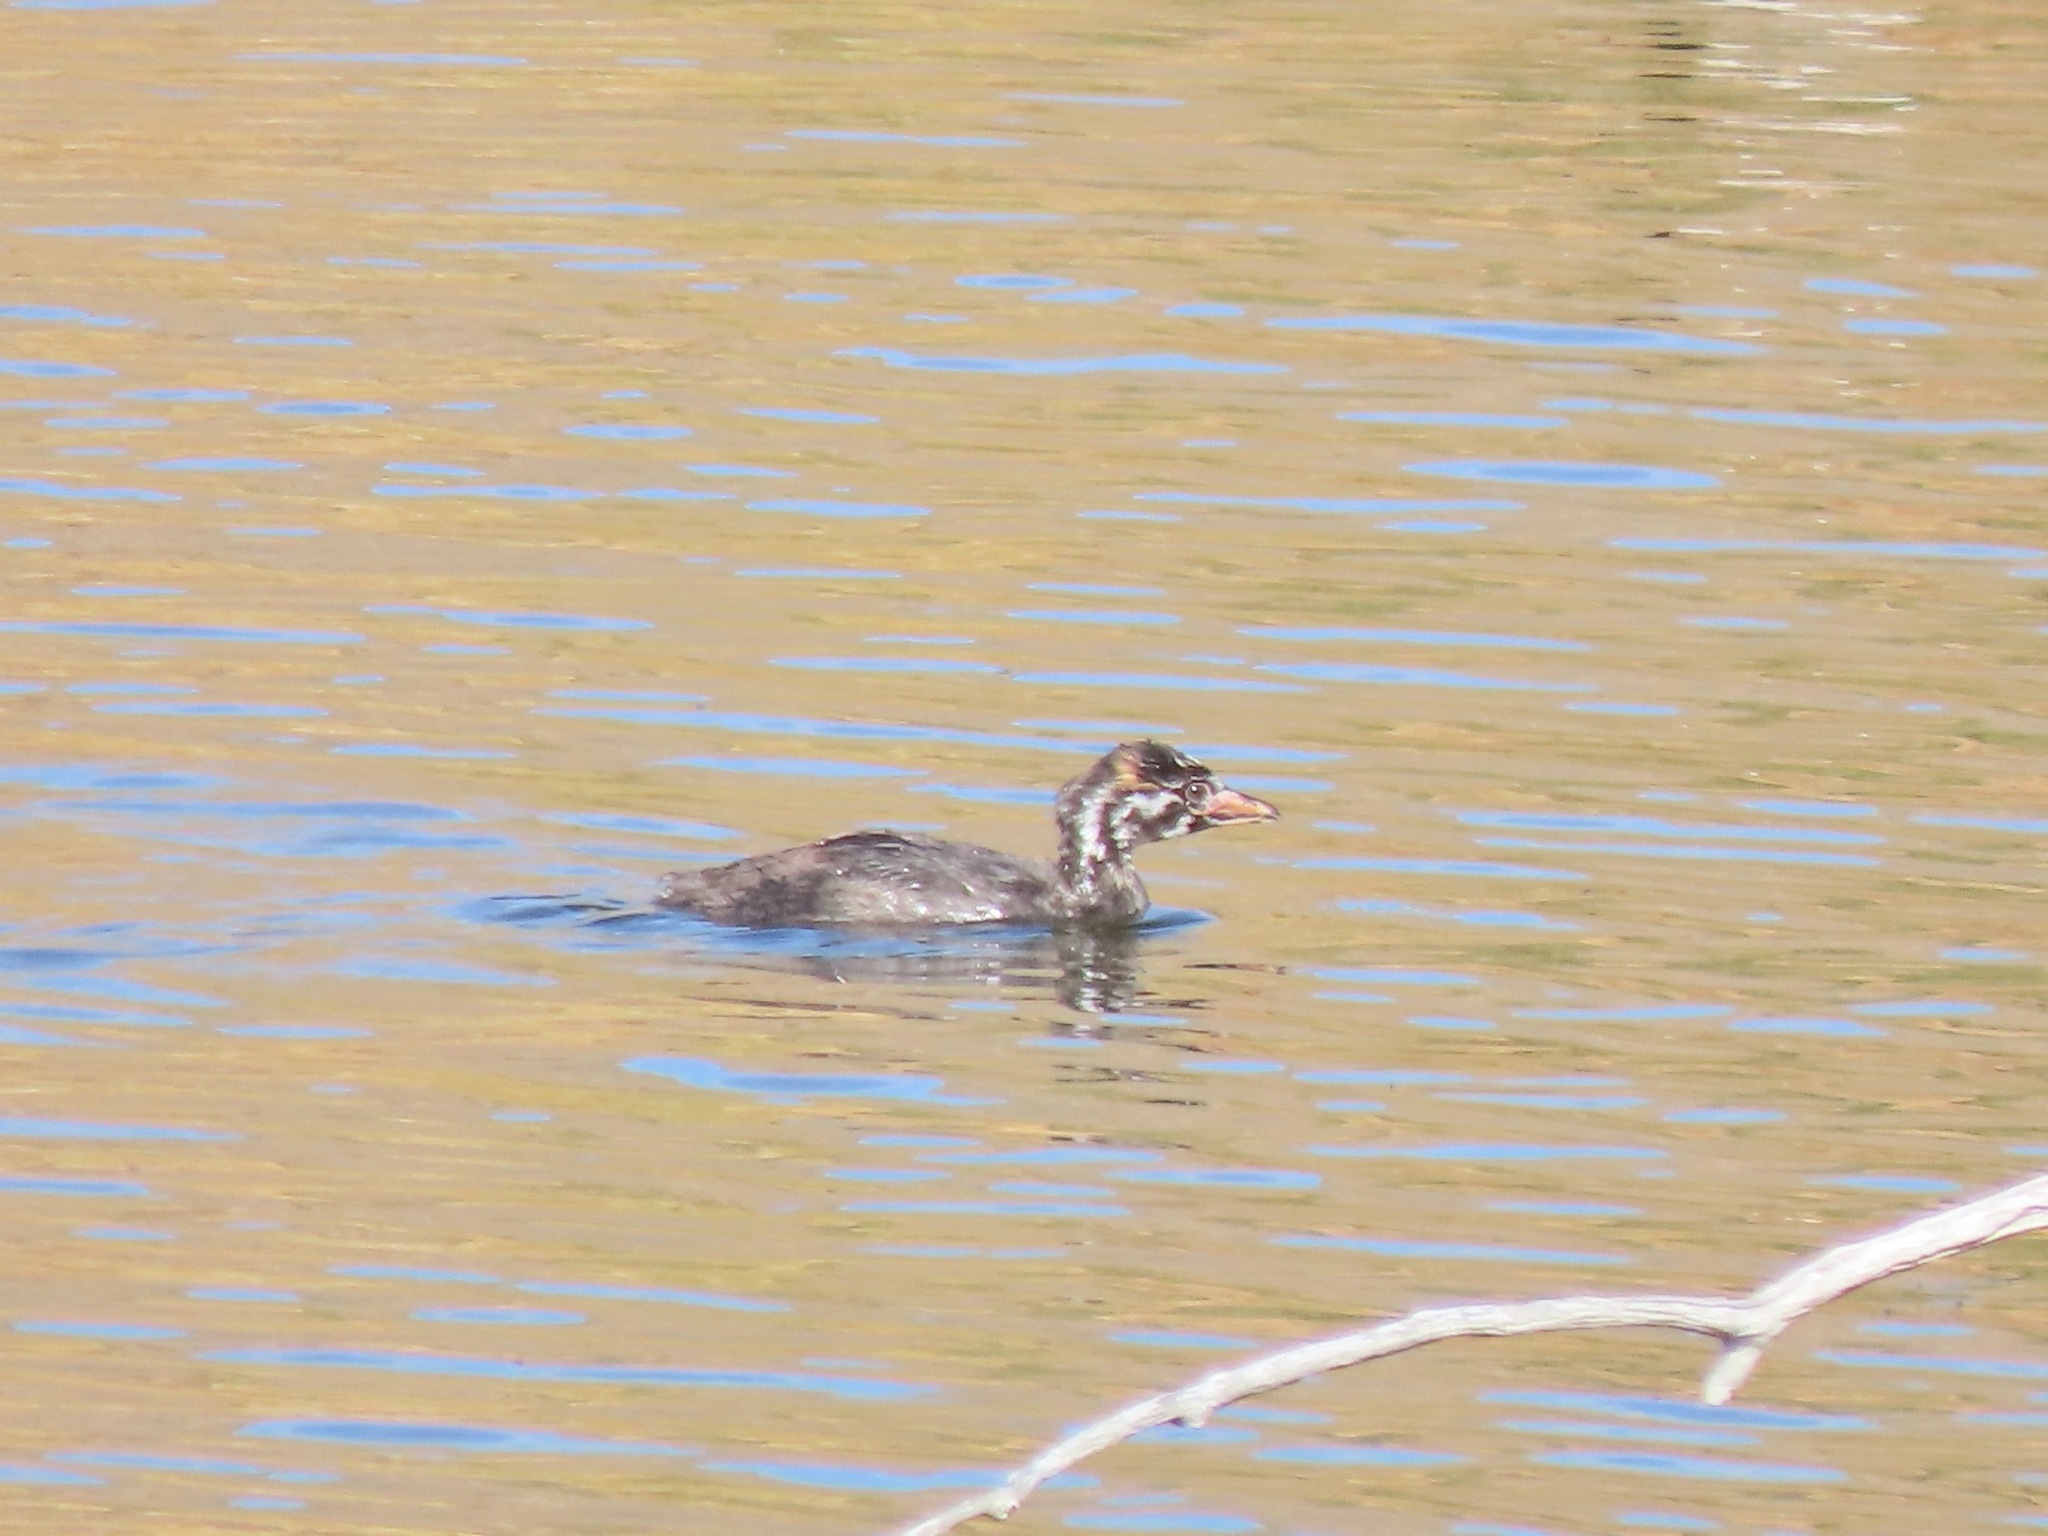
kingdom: Animalia
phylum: Chordata
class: Aves
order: Podicipediformes
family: Podicipedidae
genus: Podilymbus
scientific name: Podilymbus podiceps
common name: Pied-billed grebe
